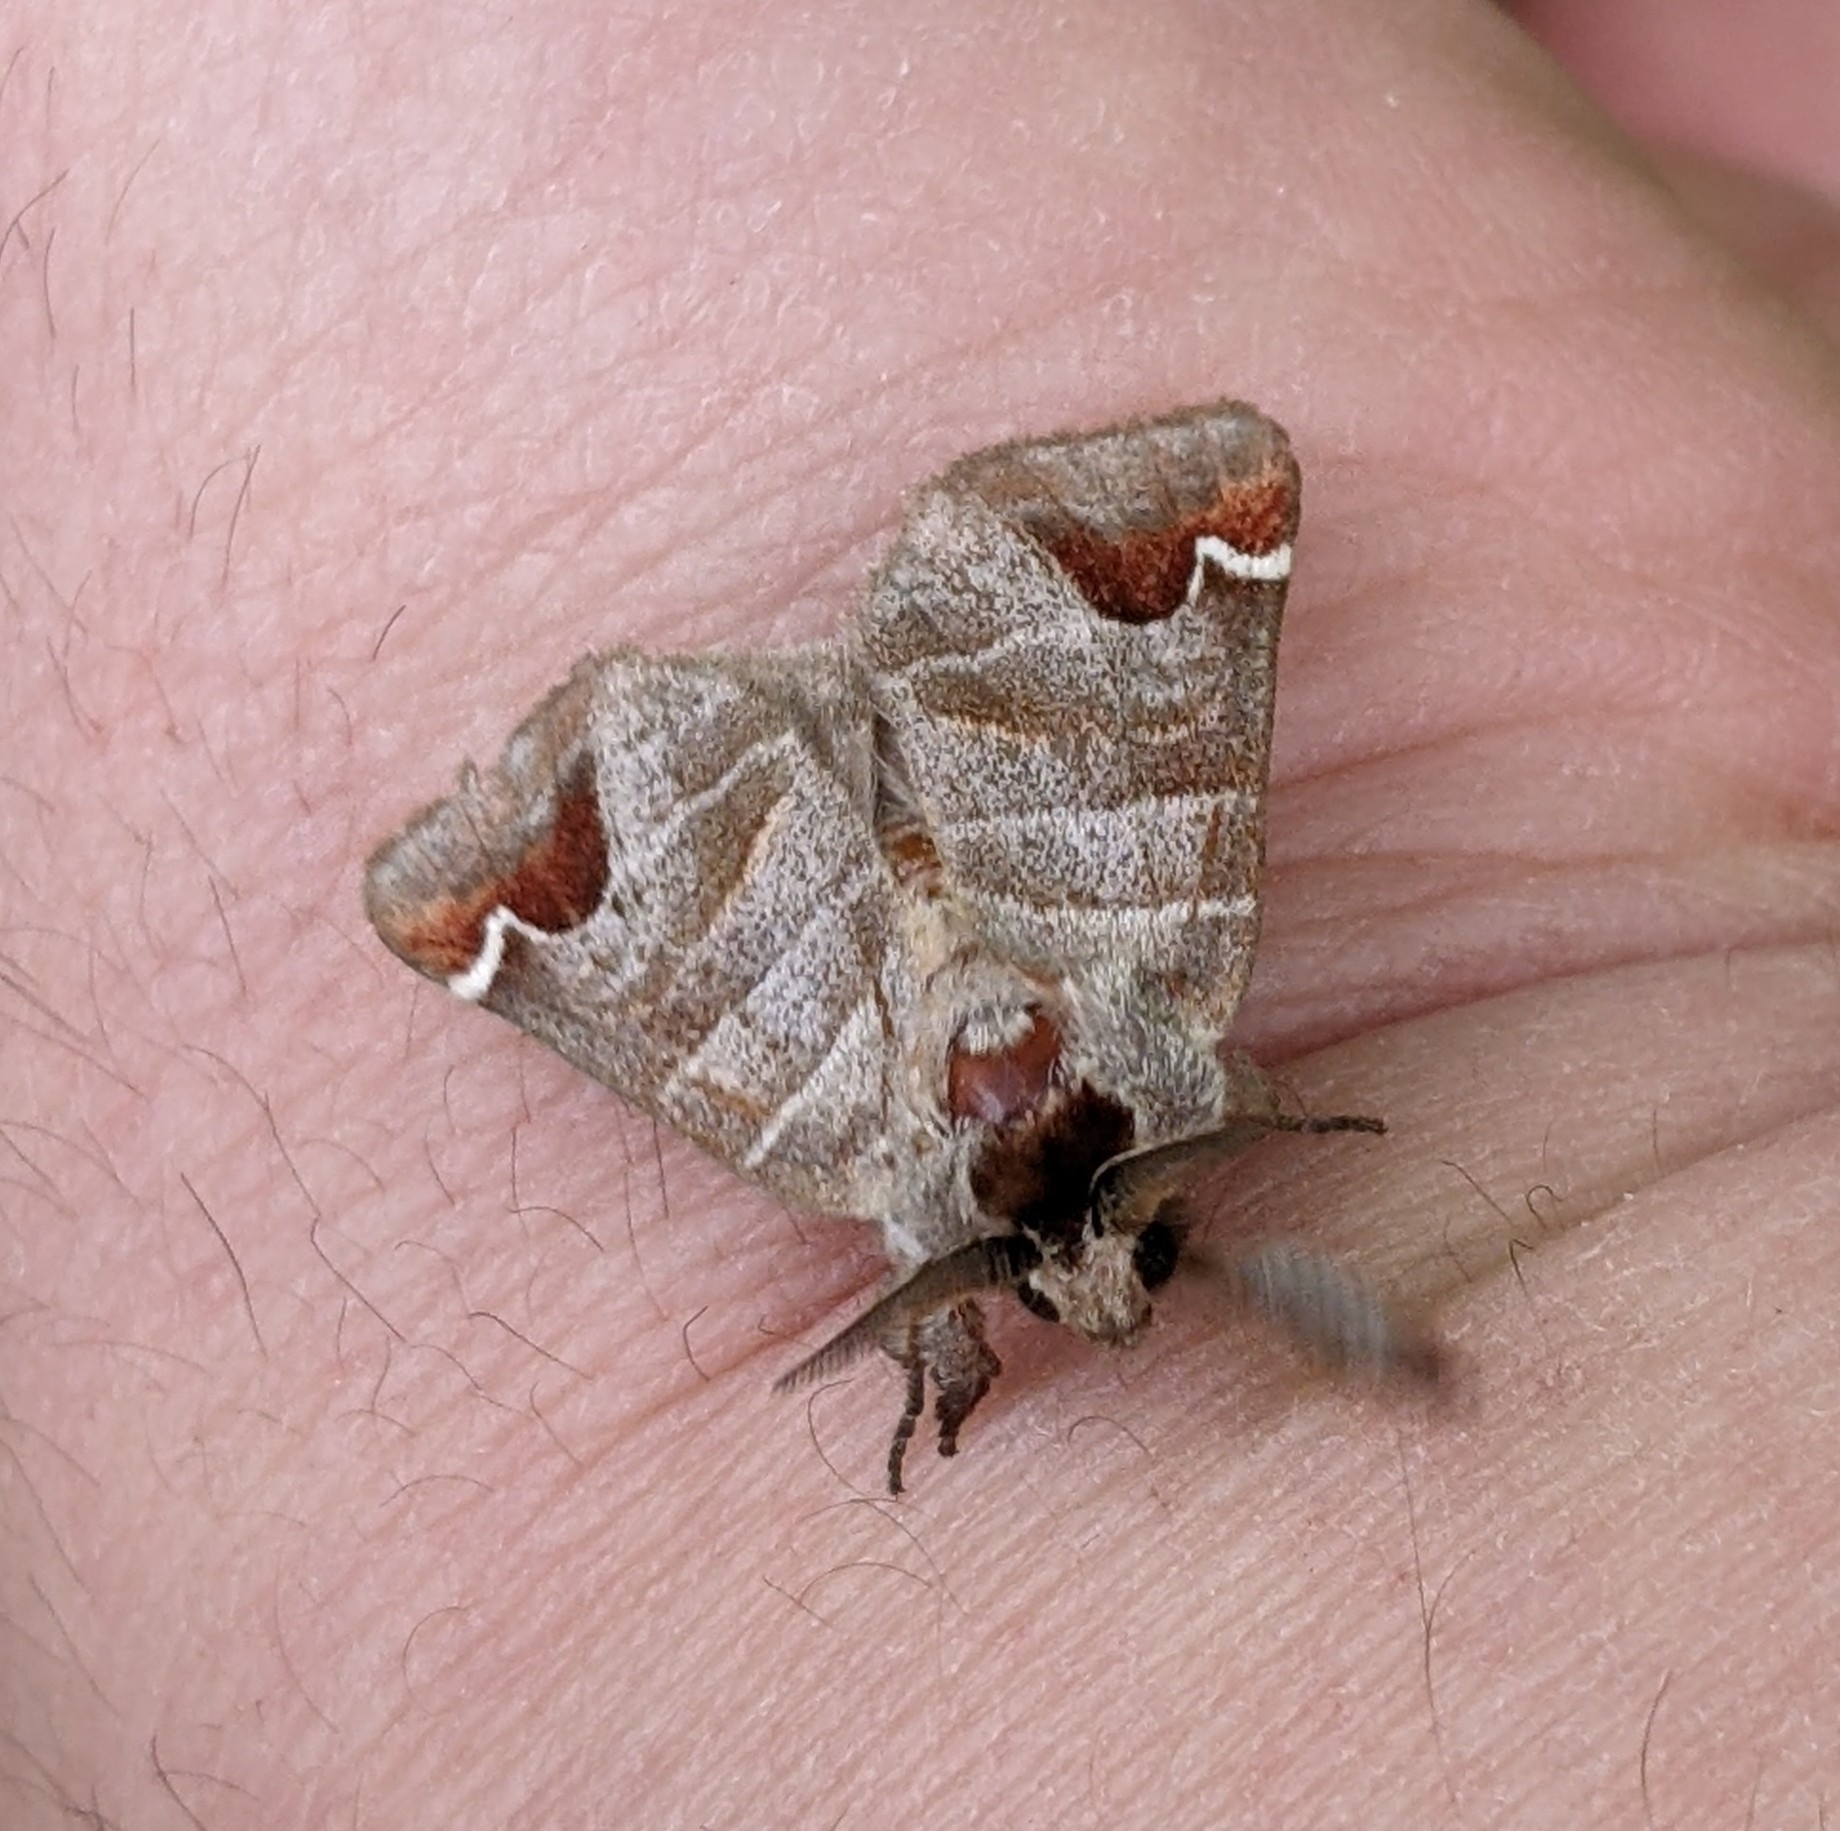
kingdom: Animalia
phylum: Arthropoda
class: Insecta
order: Lepidoptera
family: Notodontidae
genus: Clostera
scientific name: Clostera albosigma
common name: Sigmoid prominent
